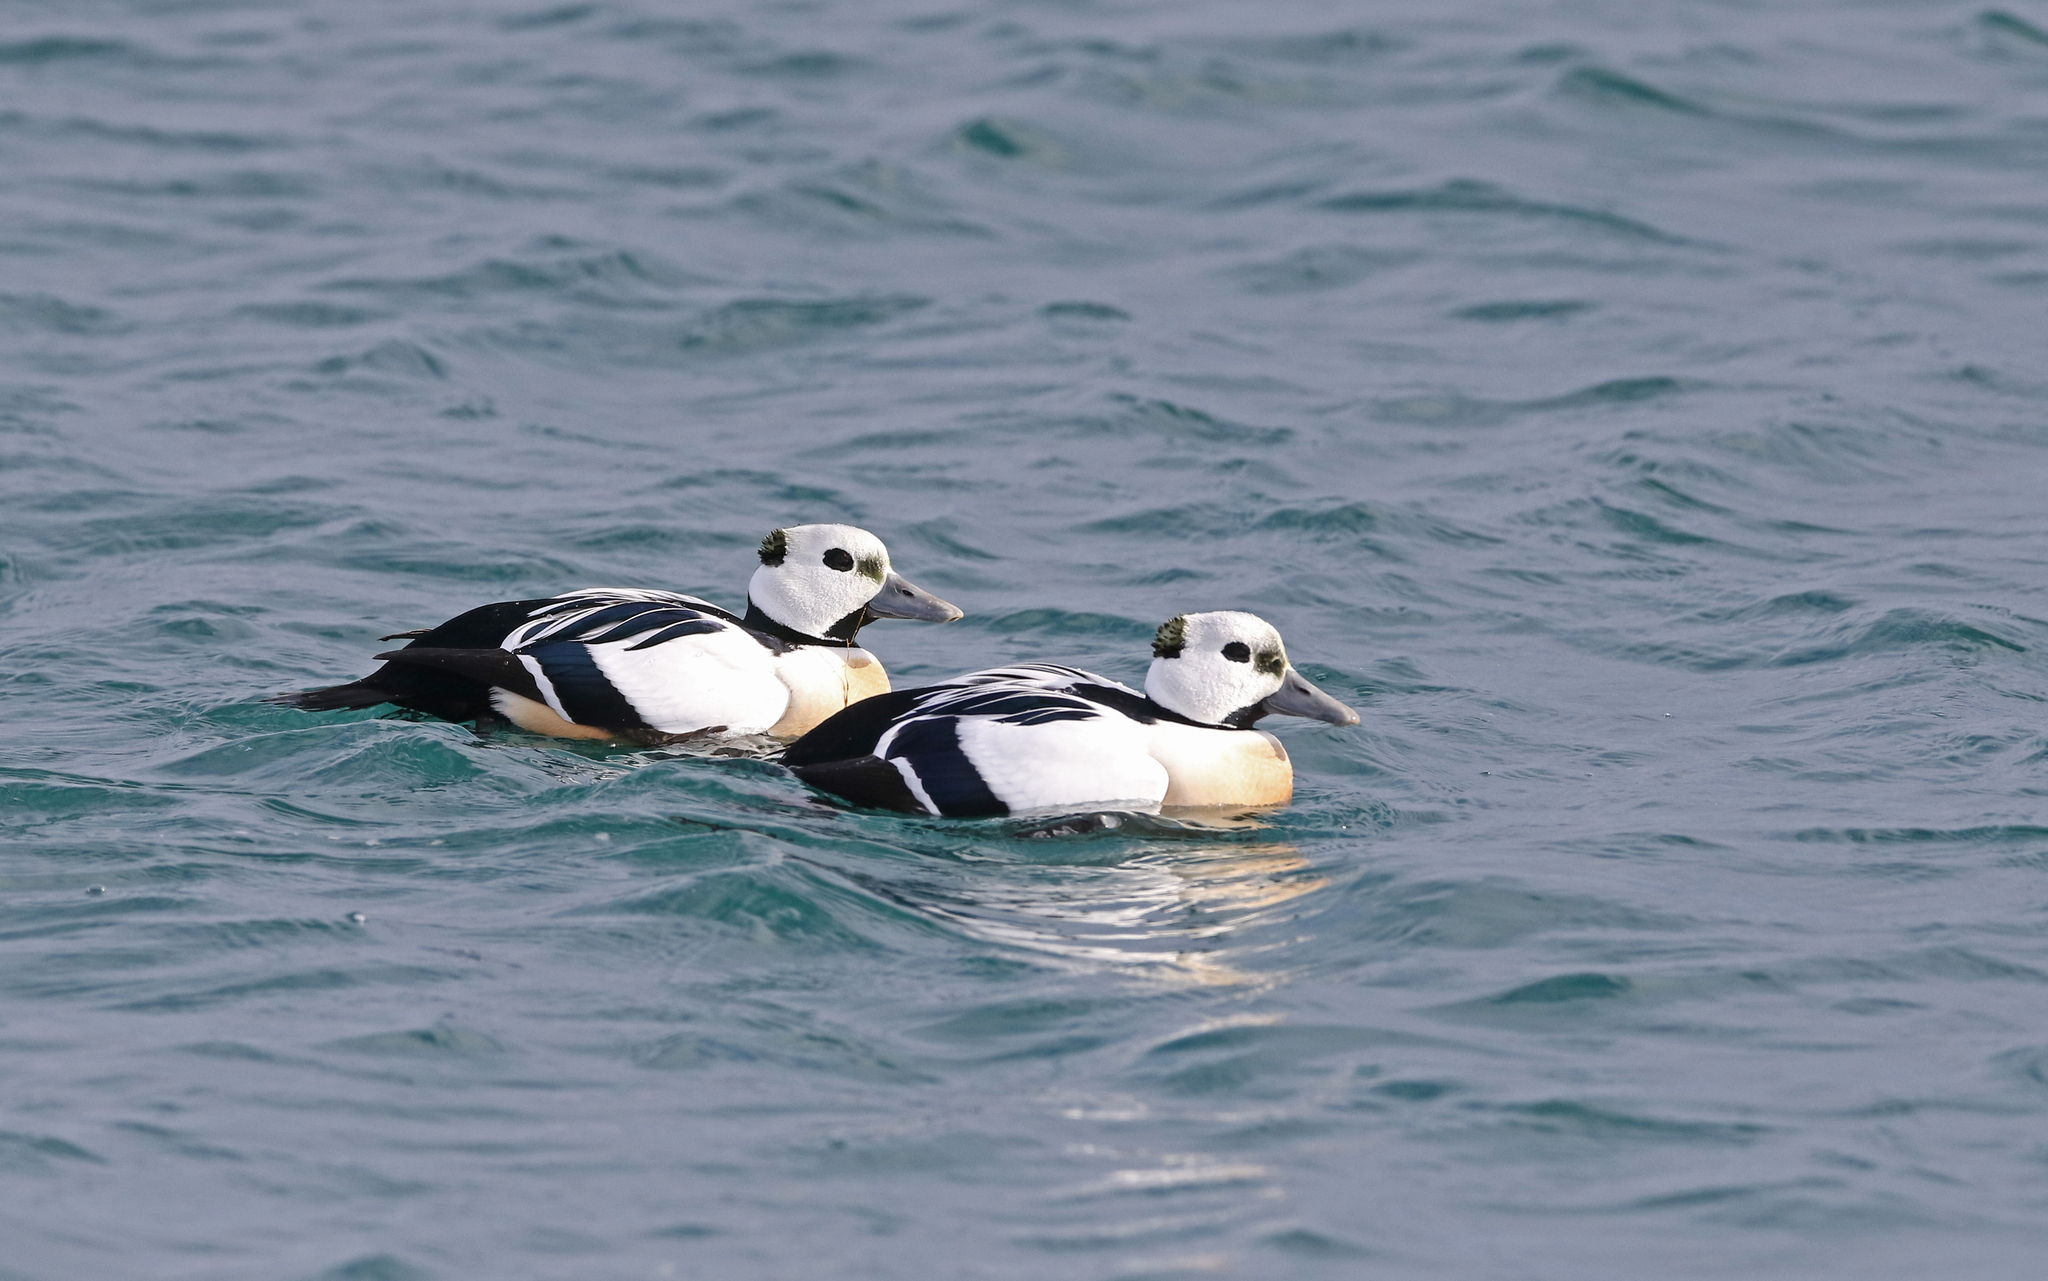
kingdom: Animalia
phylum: Chordata
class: Aves
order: Anseriformes
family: Anatidae
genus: Polysticta
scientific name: Polysticta stelleri
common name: Steller's eider
